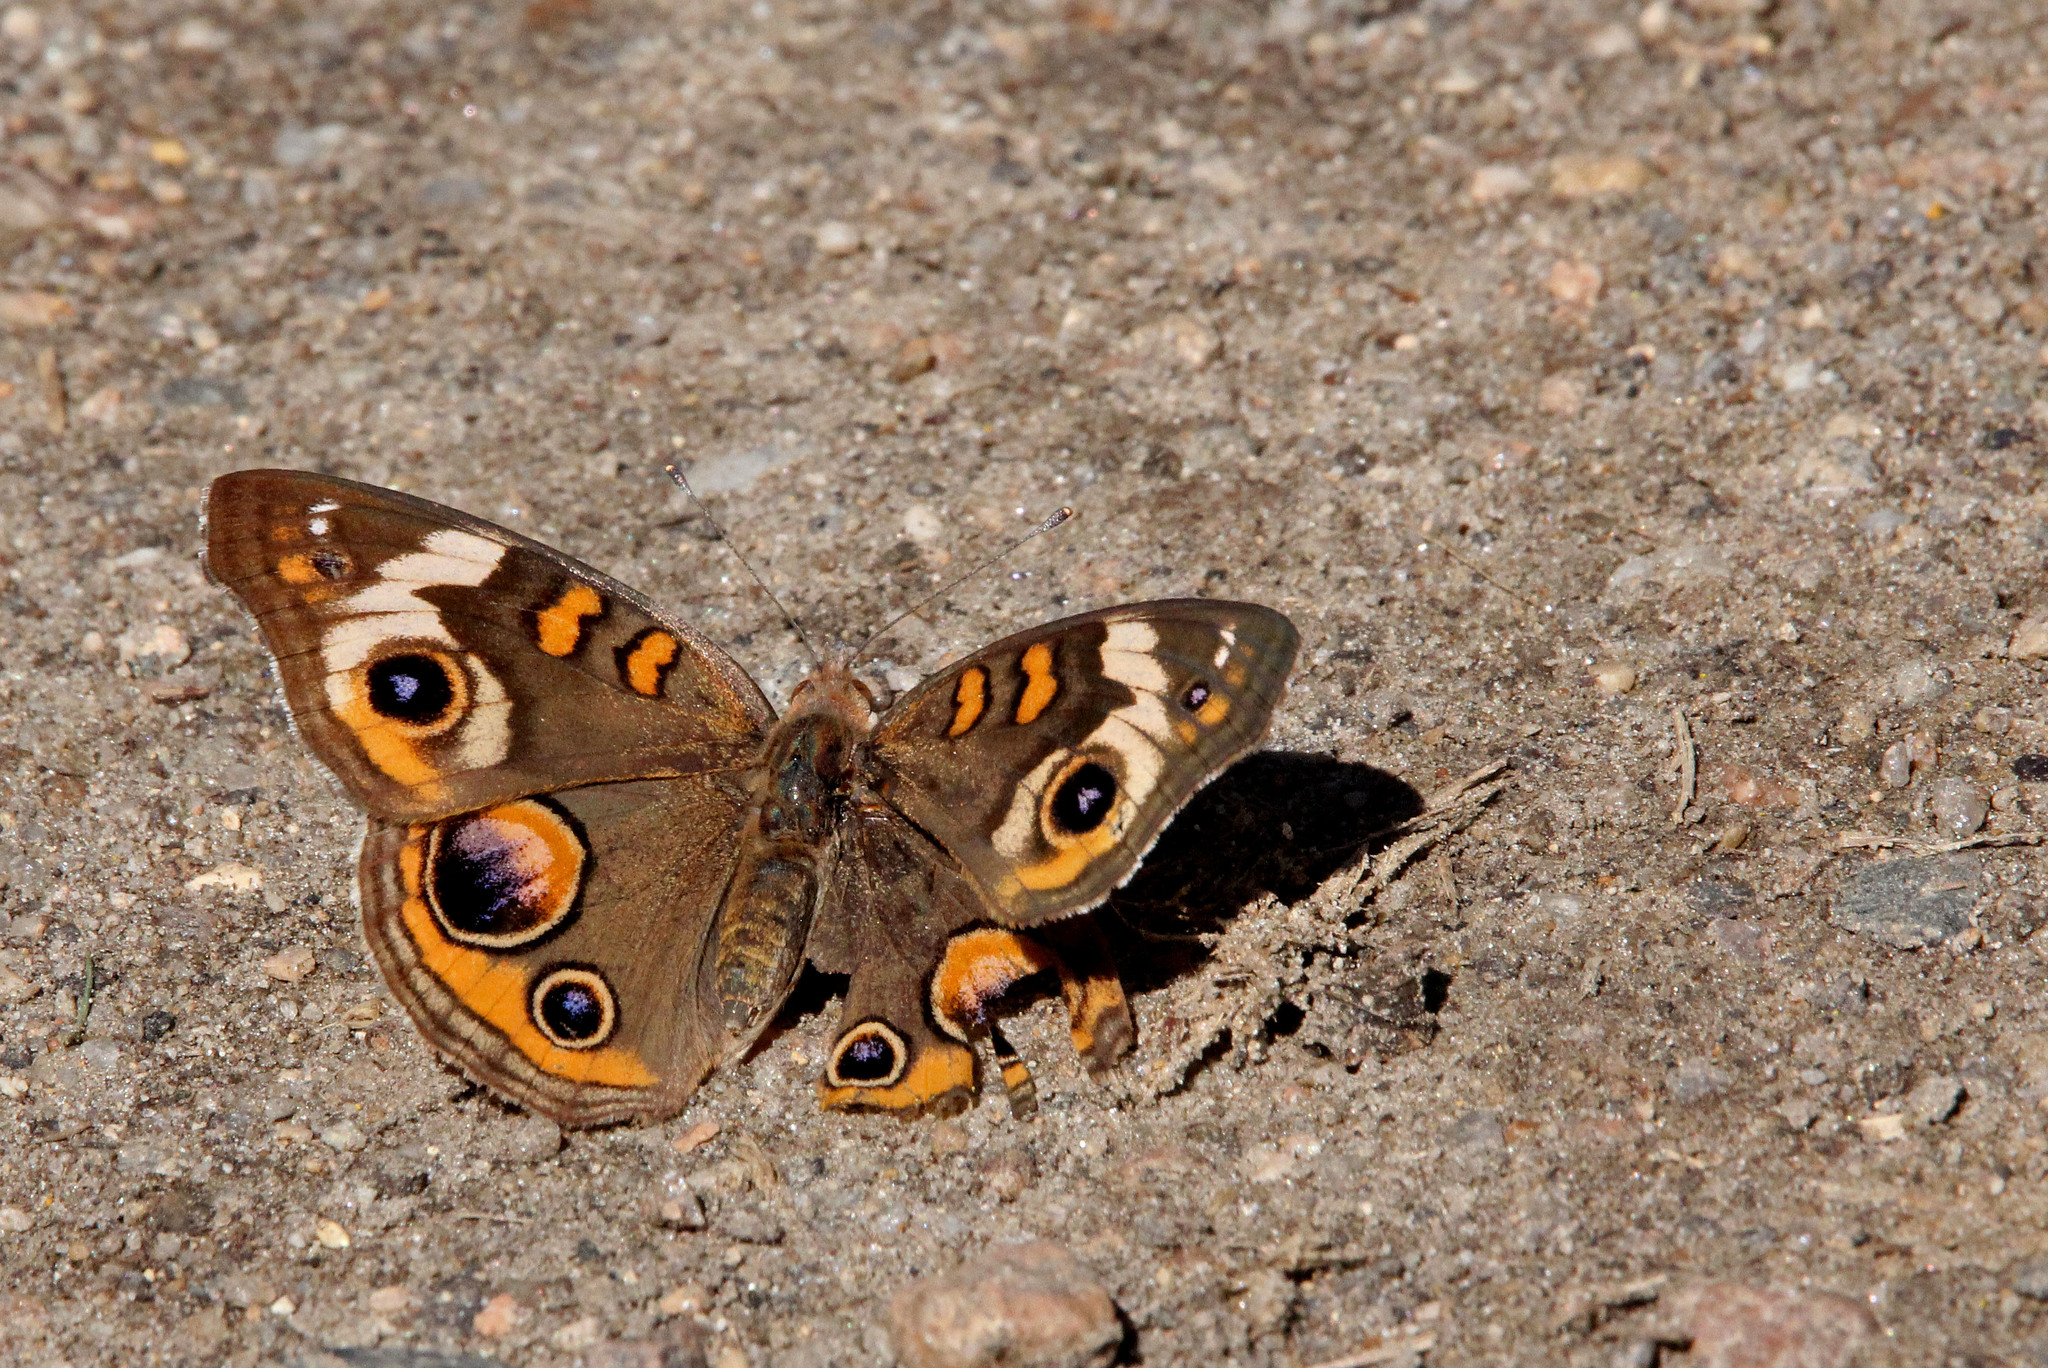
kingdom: Animalia
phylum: Arthropoda
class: Insecta
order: Lepidoptera
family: Nymphalidae
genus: Junonia
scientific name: Junonia coenia
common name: Common buckeye
